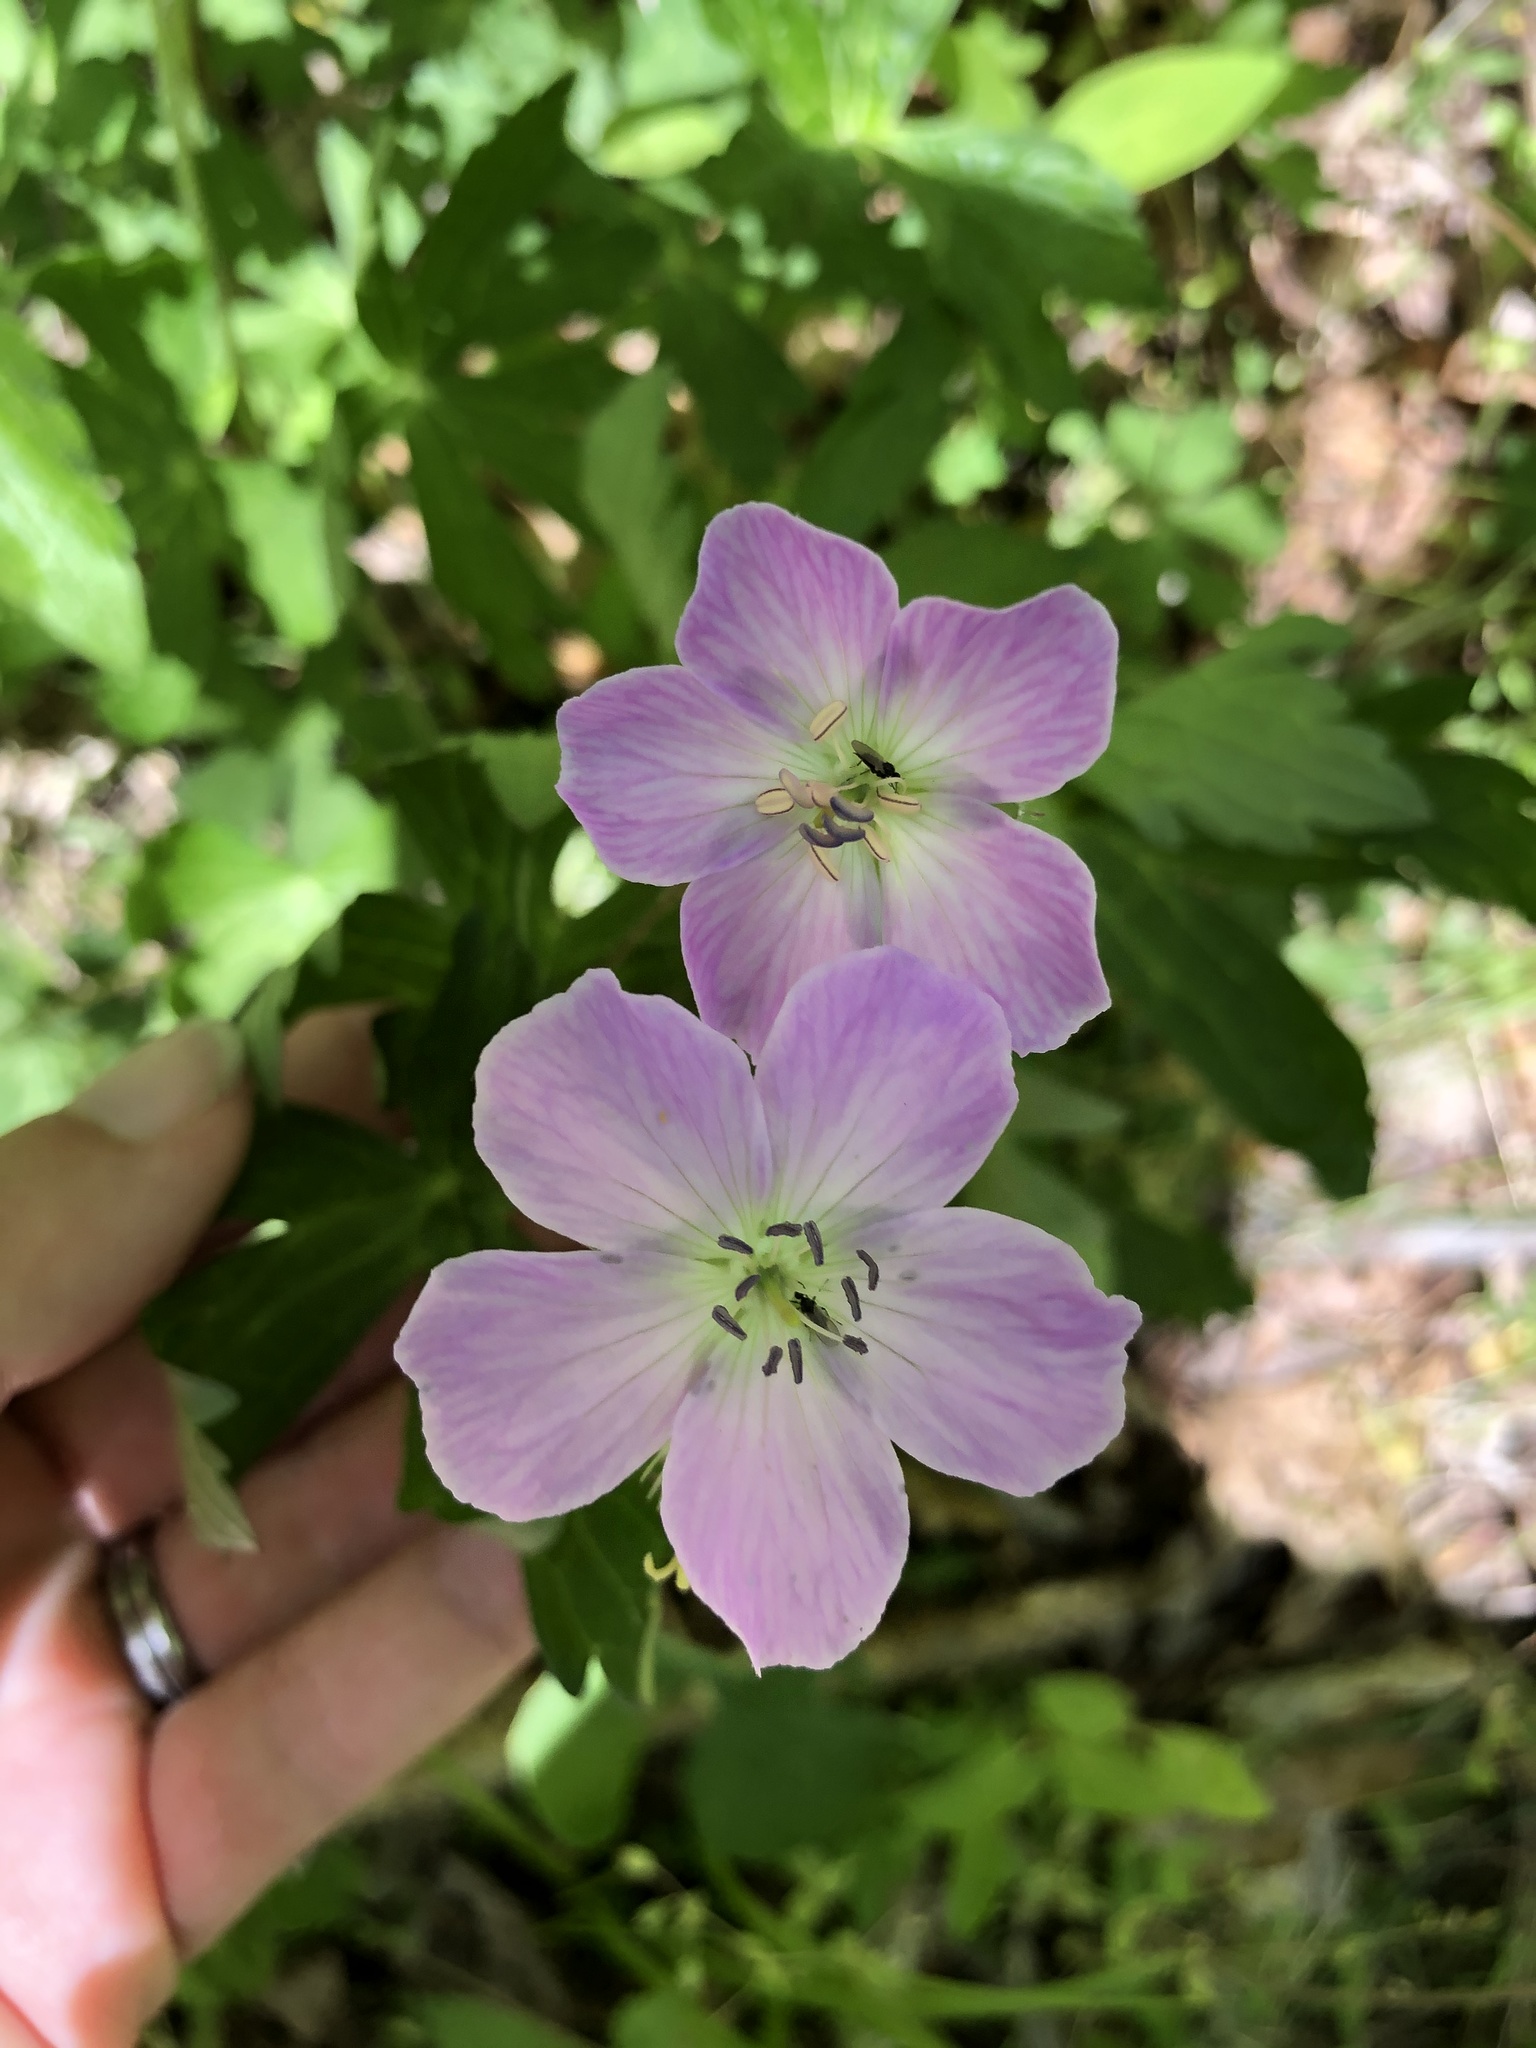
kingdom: Plantae
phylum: Tracheophyta
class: Magnoliopsida
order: Geraniales
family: Geraniaceae
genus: Geranium
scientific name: Geranium maculatum
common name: Spotted geranium
